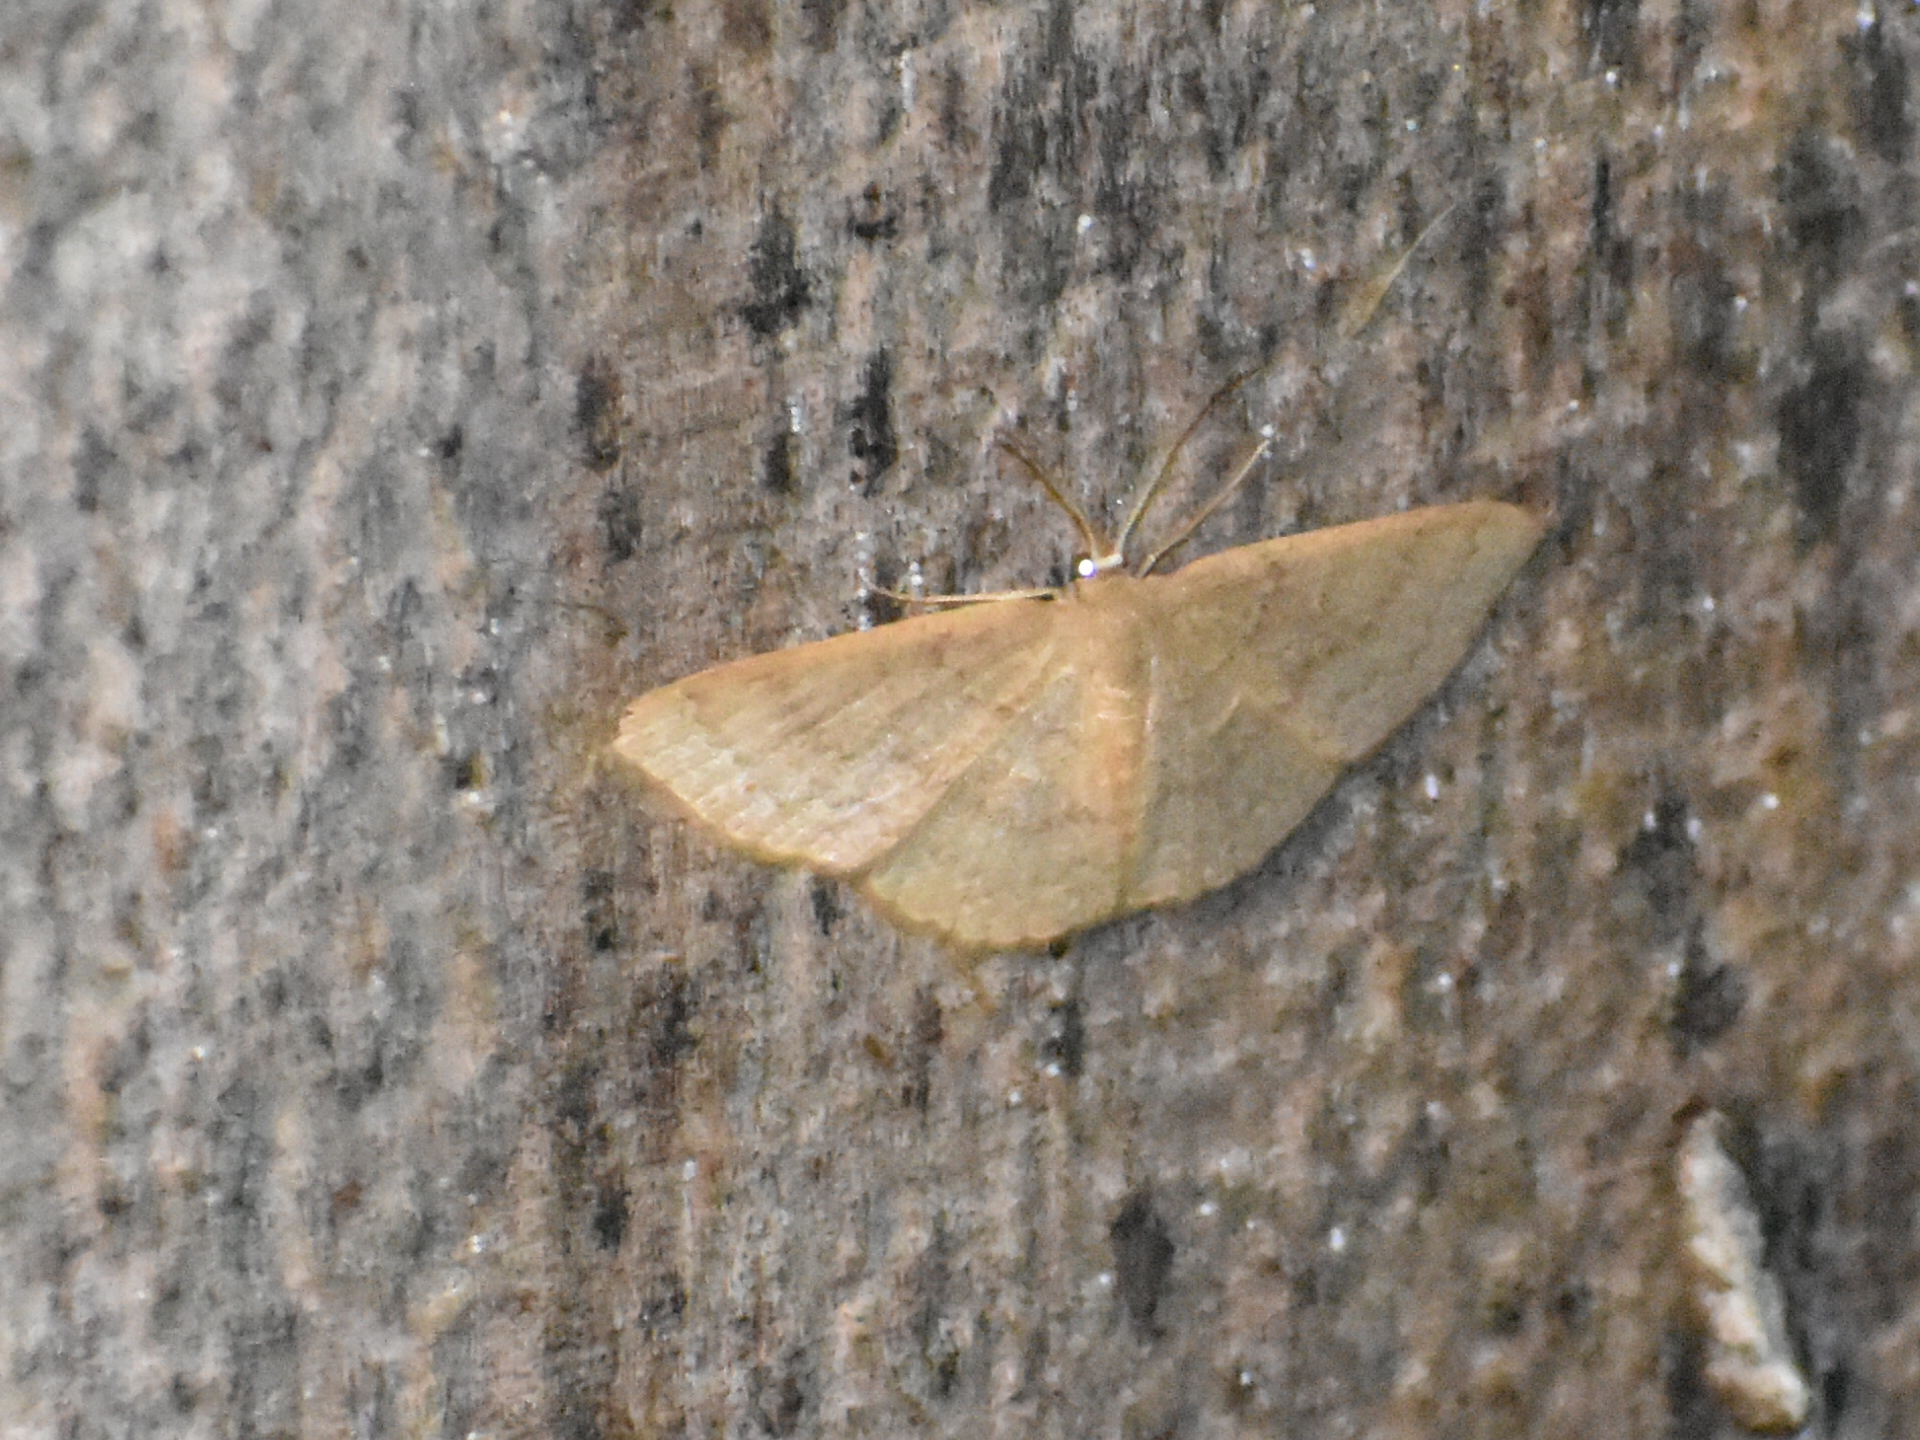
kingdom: Animalia
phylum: Arthropoda
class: Insecta
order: Lepidoptera
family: Geometridae
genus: Pleuroprucha
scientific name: Pleuroprucha insulsaria
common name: Common tan wave
